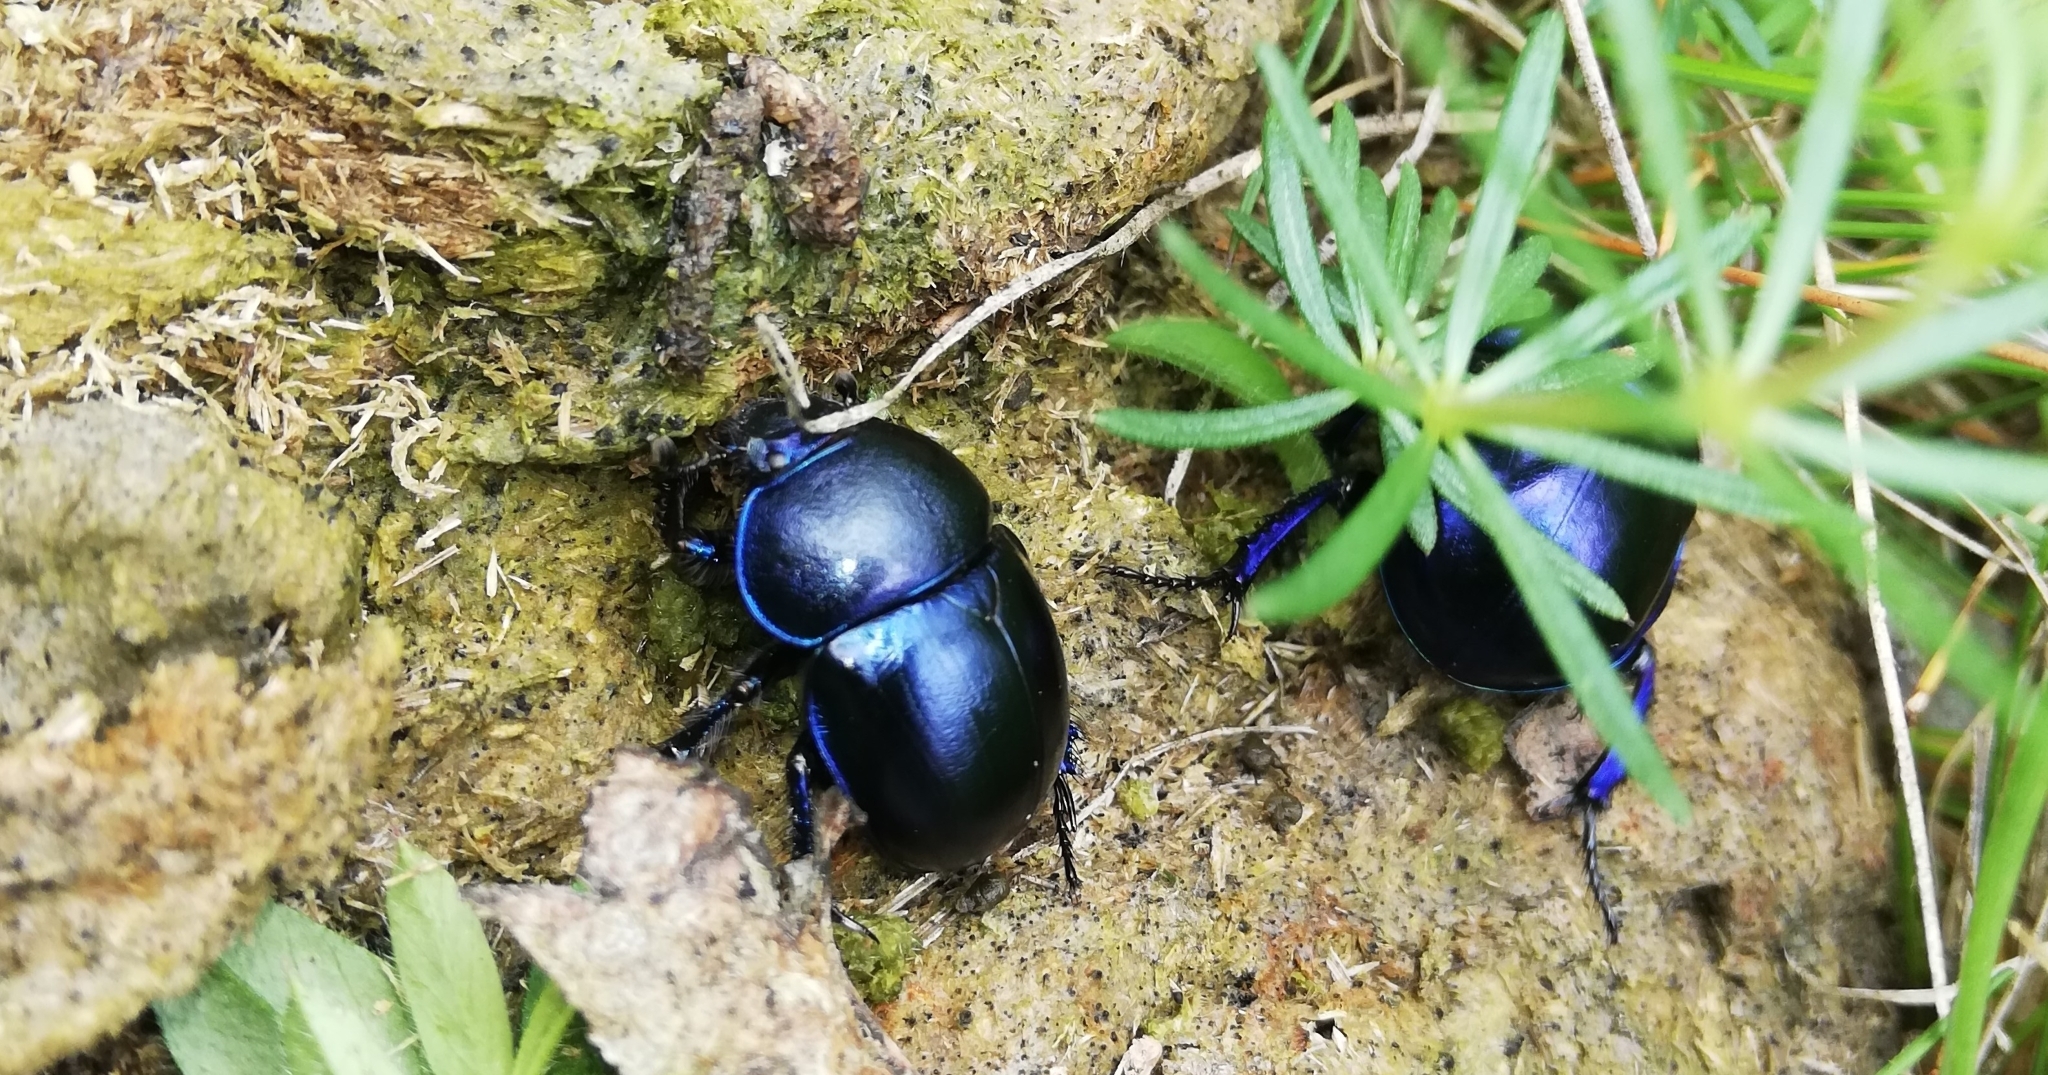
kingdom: Animalia
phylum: Arthropoda
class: Insecta
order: Coleoptera
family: Geotrupidae
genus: Trypocopris
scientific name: Trypocopris vernalis
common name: Spring dumbledor
